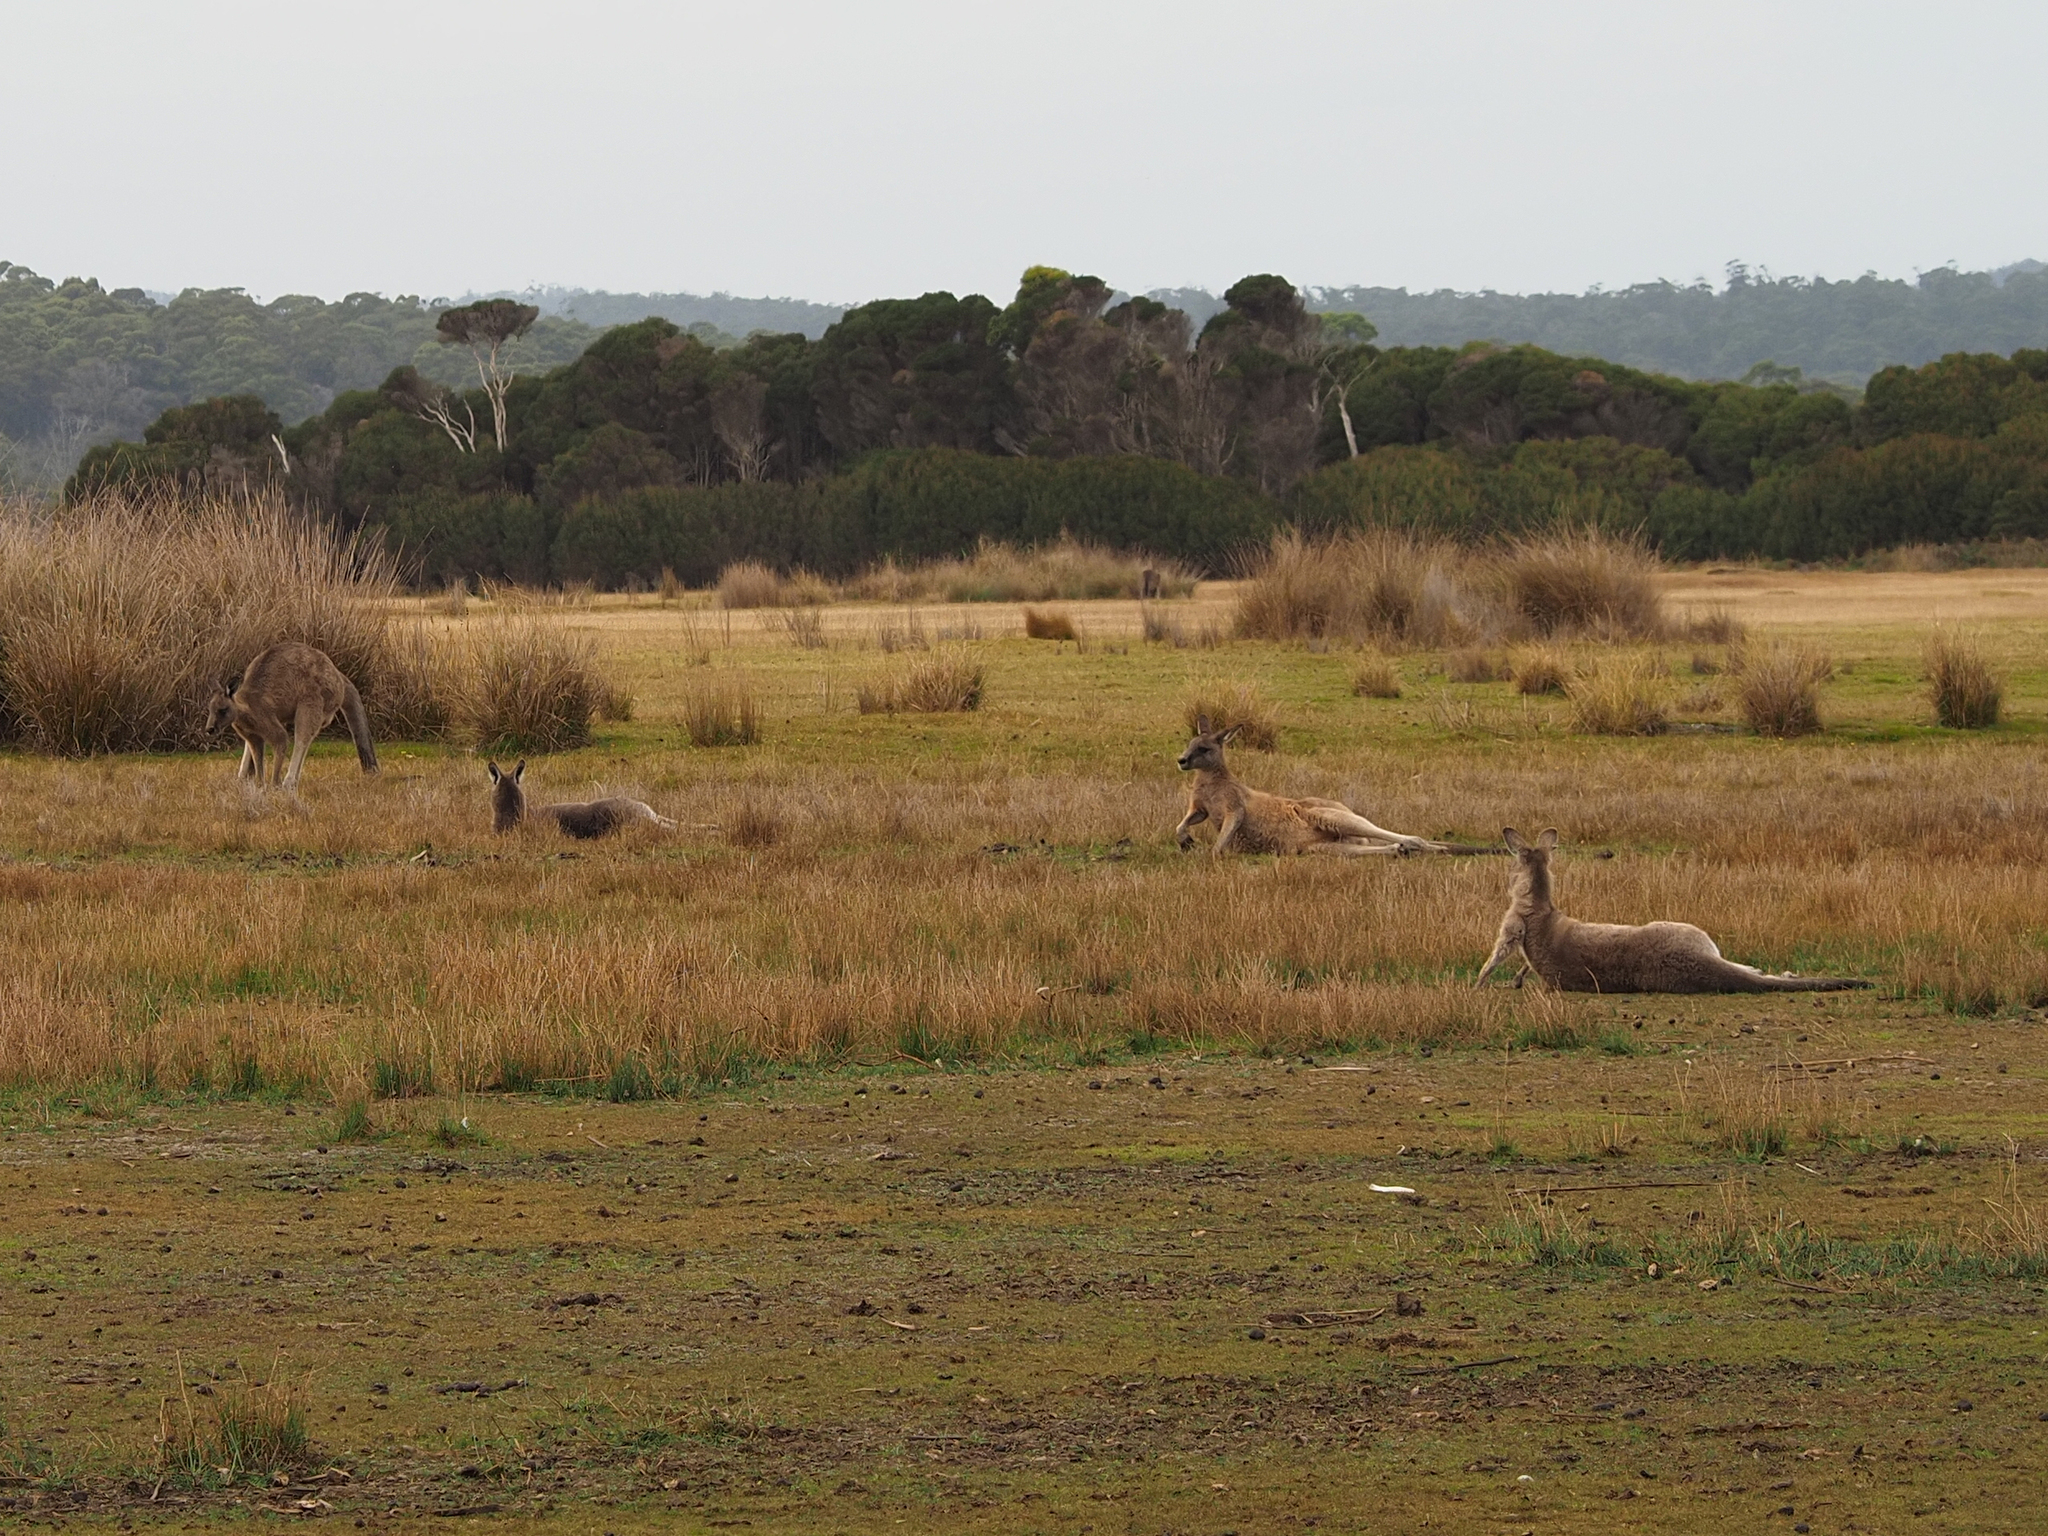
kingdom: Animalia
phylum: Chordata
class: Mammalia
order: Diprotodontia
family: Macropodidae
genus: Macropus
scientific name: Macropus giganteus
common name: Eastern grey kangaroo
